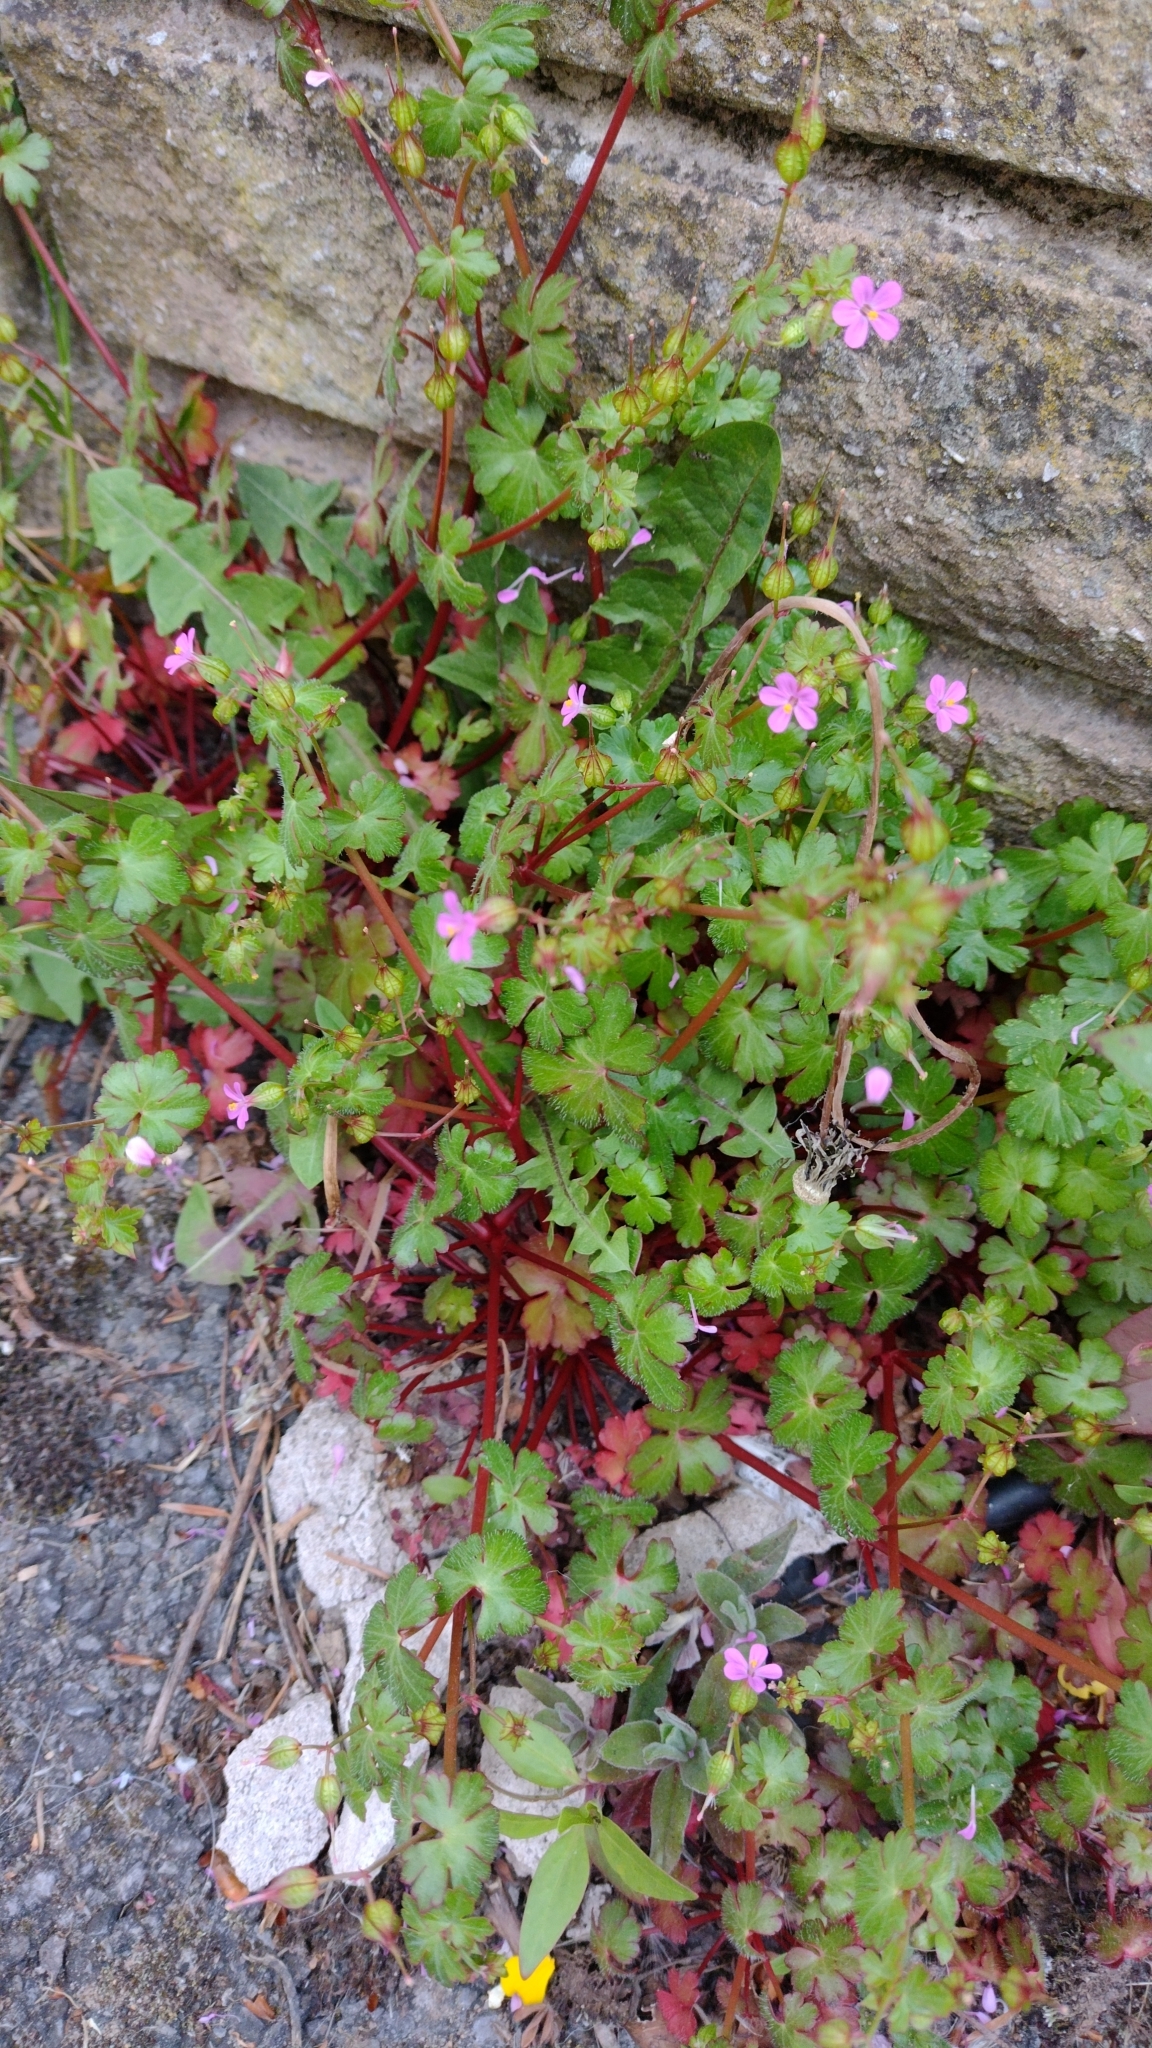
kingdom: Plantae
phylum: Tracheophyta
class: Magnoliopsida
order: Geraniales
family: Geraniaceae
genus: Geranium
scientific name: Geranium lucidum
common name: Shining crane's-bill
